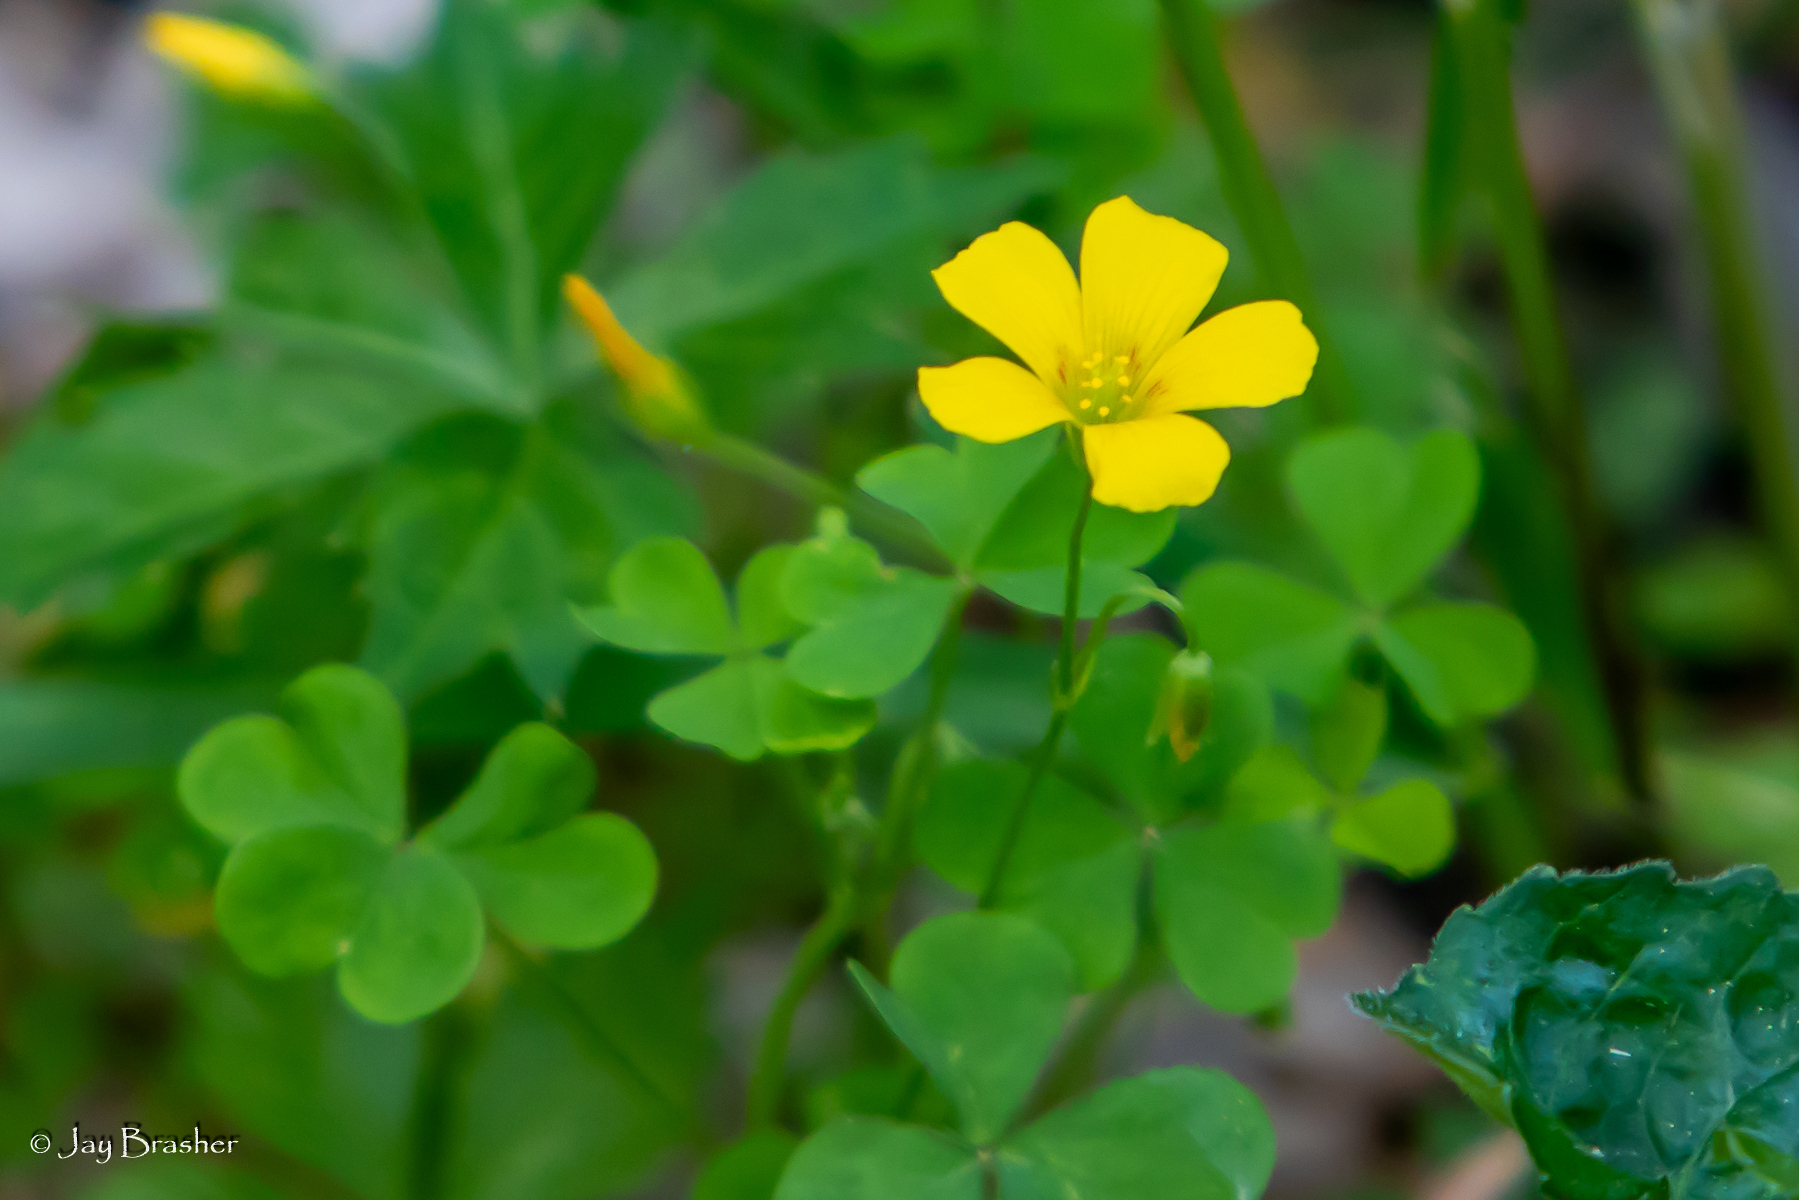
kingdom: Plantae
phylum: Tracheophyta
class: Magnoliopsida
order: Oxalidales
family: Oxalidaceae
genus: Oxalis
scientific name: Oxalis corniculata
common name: Procumbent yellow-sorrel
